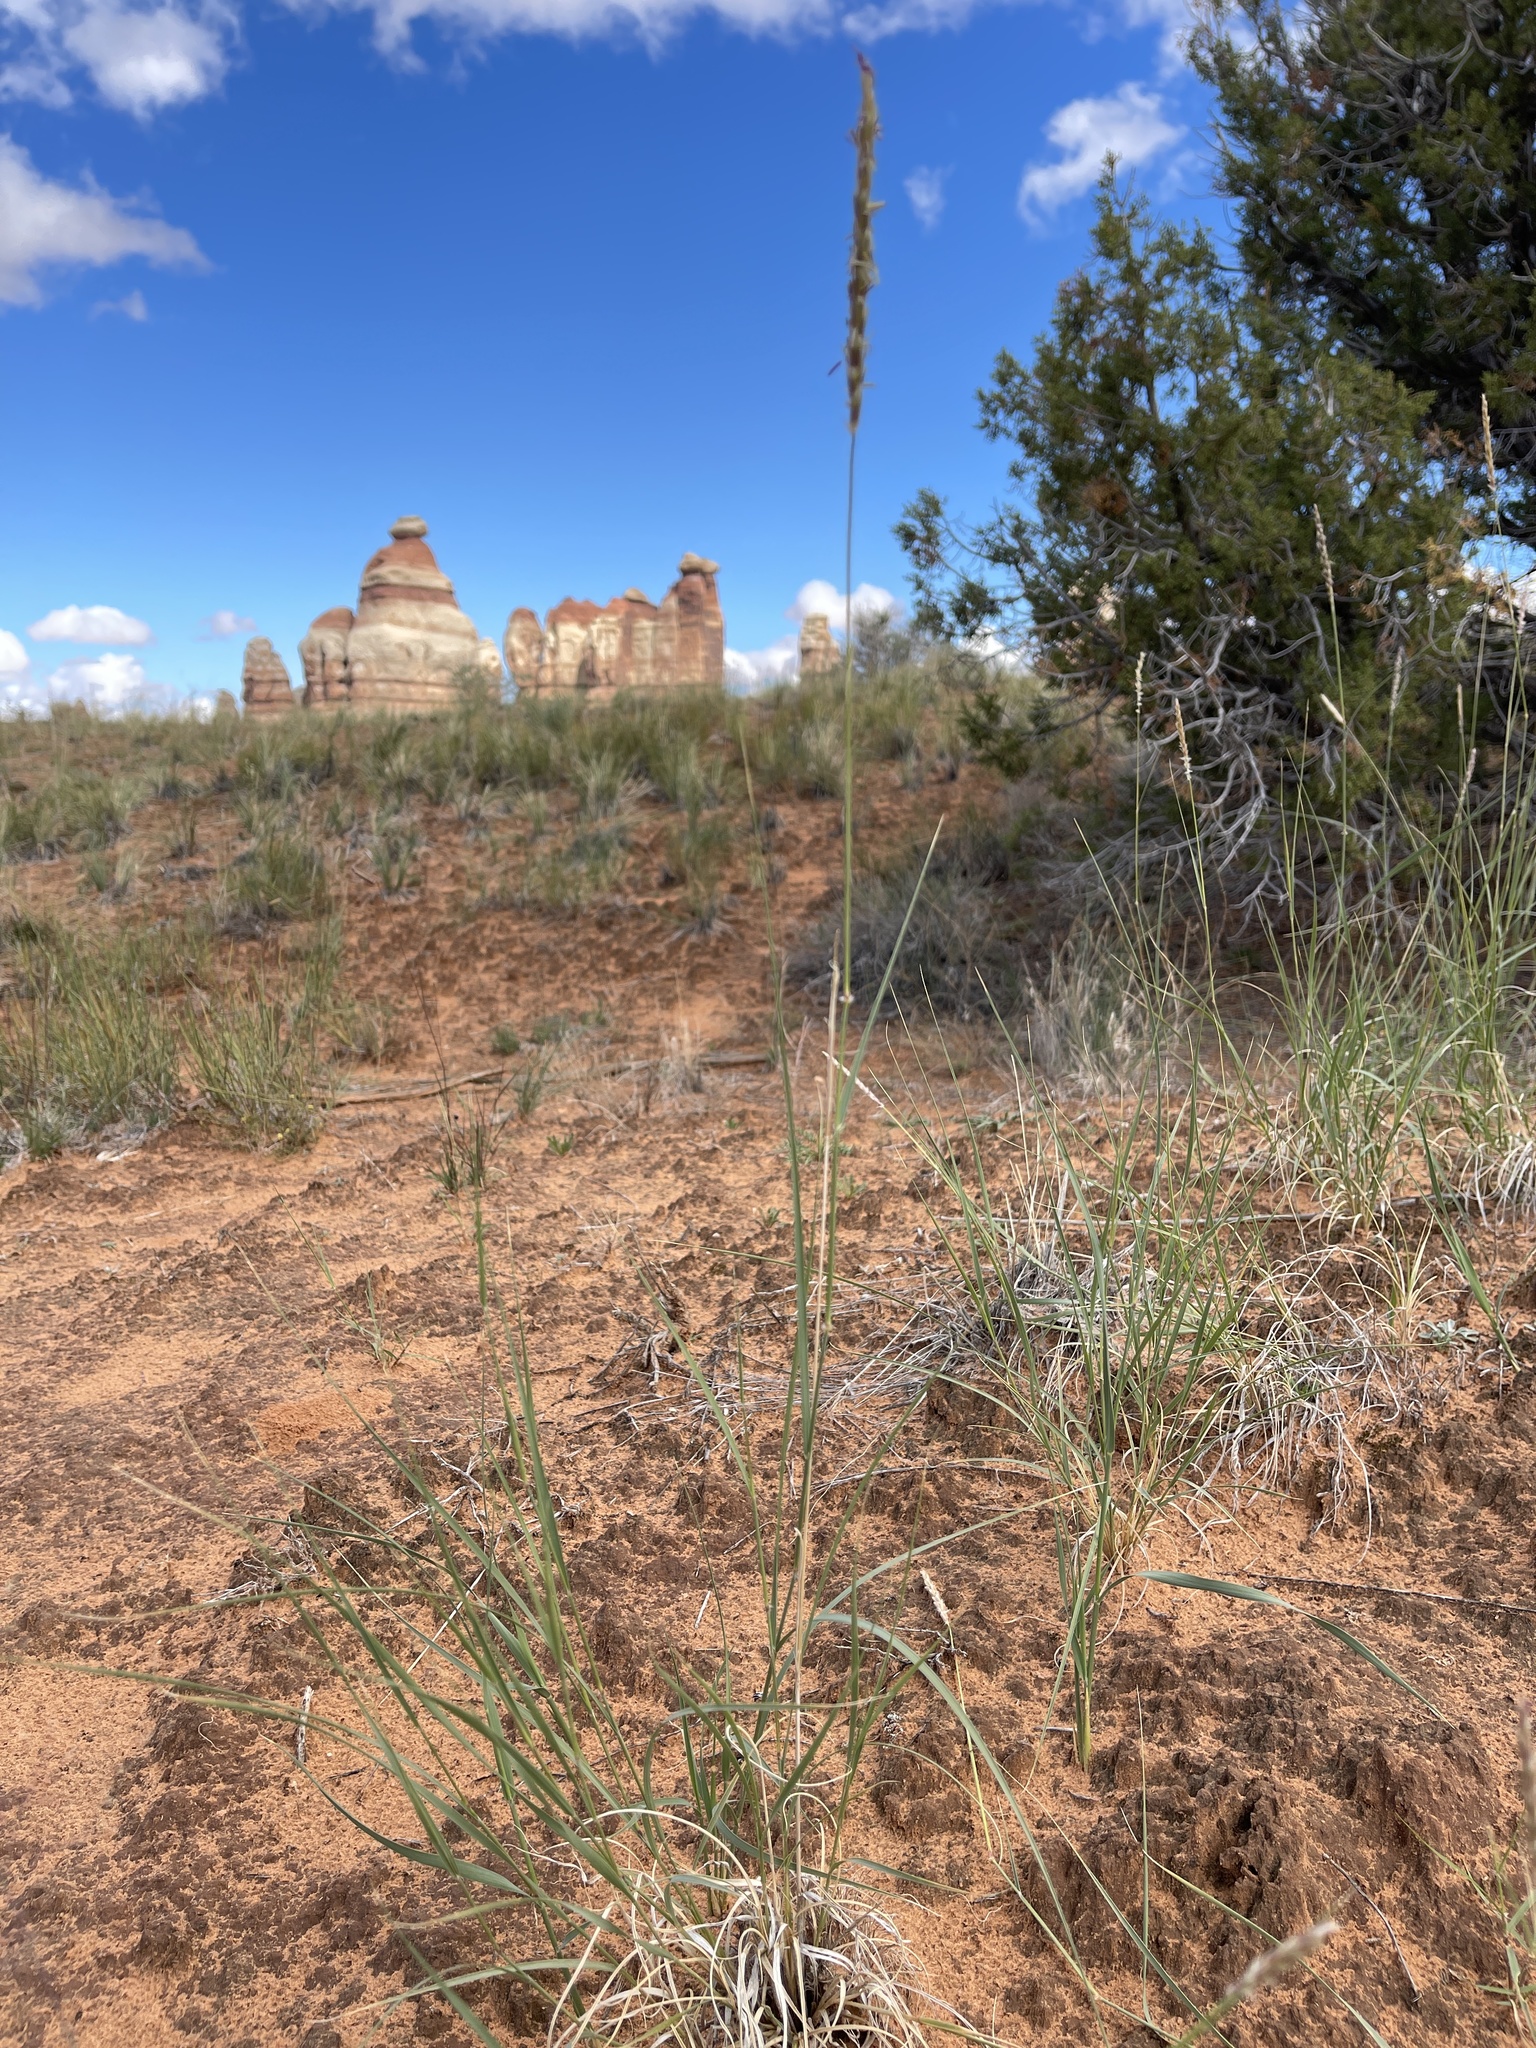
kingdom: Plantae
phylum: Tracheophyta
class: Liliopsida
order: Poales
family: Poaceae
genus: Hilaria
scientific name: Hilaria jamesii
